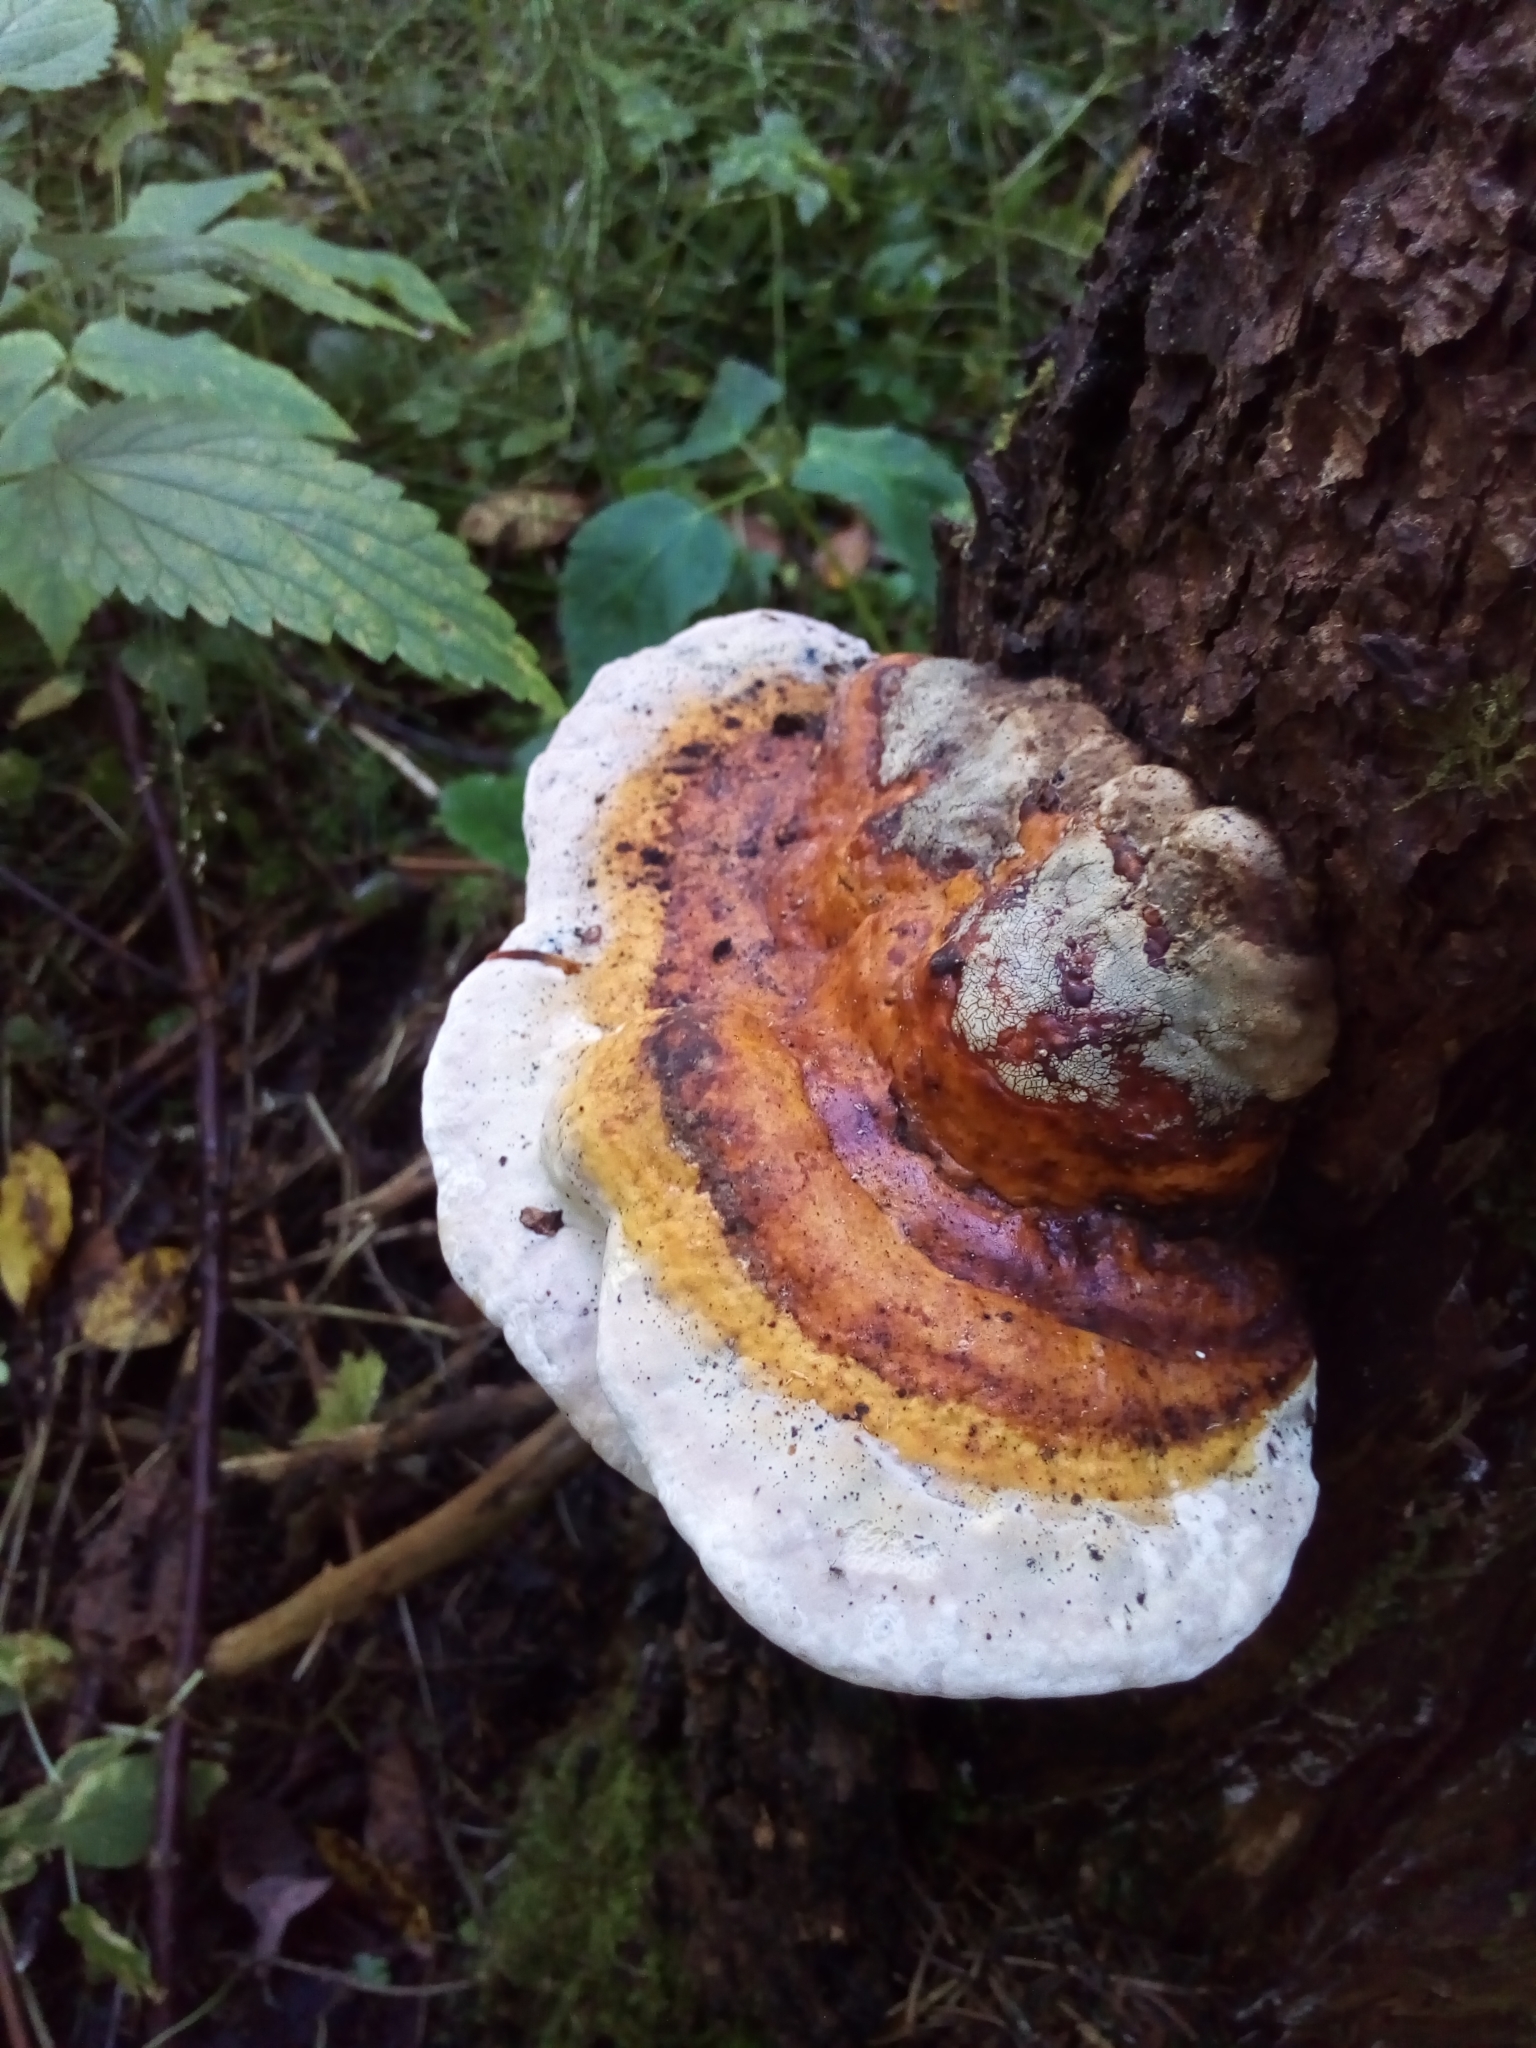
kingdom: Fungi
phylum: Basidiomycota
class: Agaricomycetes
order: Polyporales
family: Fomitopsidaceae
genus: Fomitopsis
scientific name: Fomitopsis pinicola
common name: Red-belted bracket
